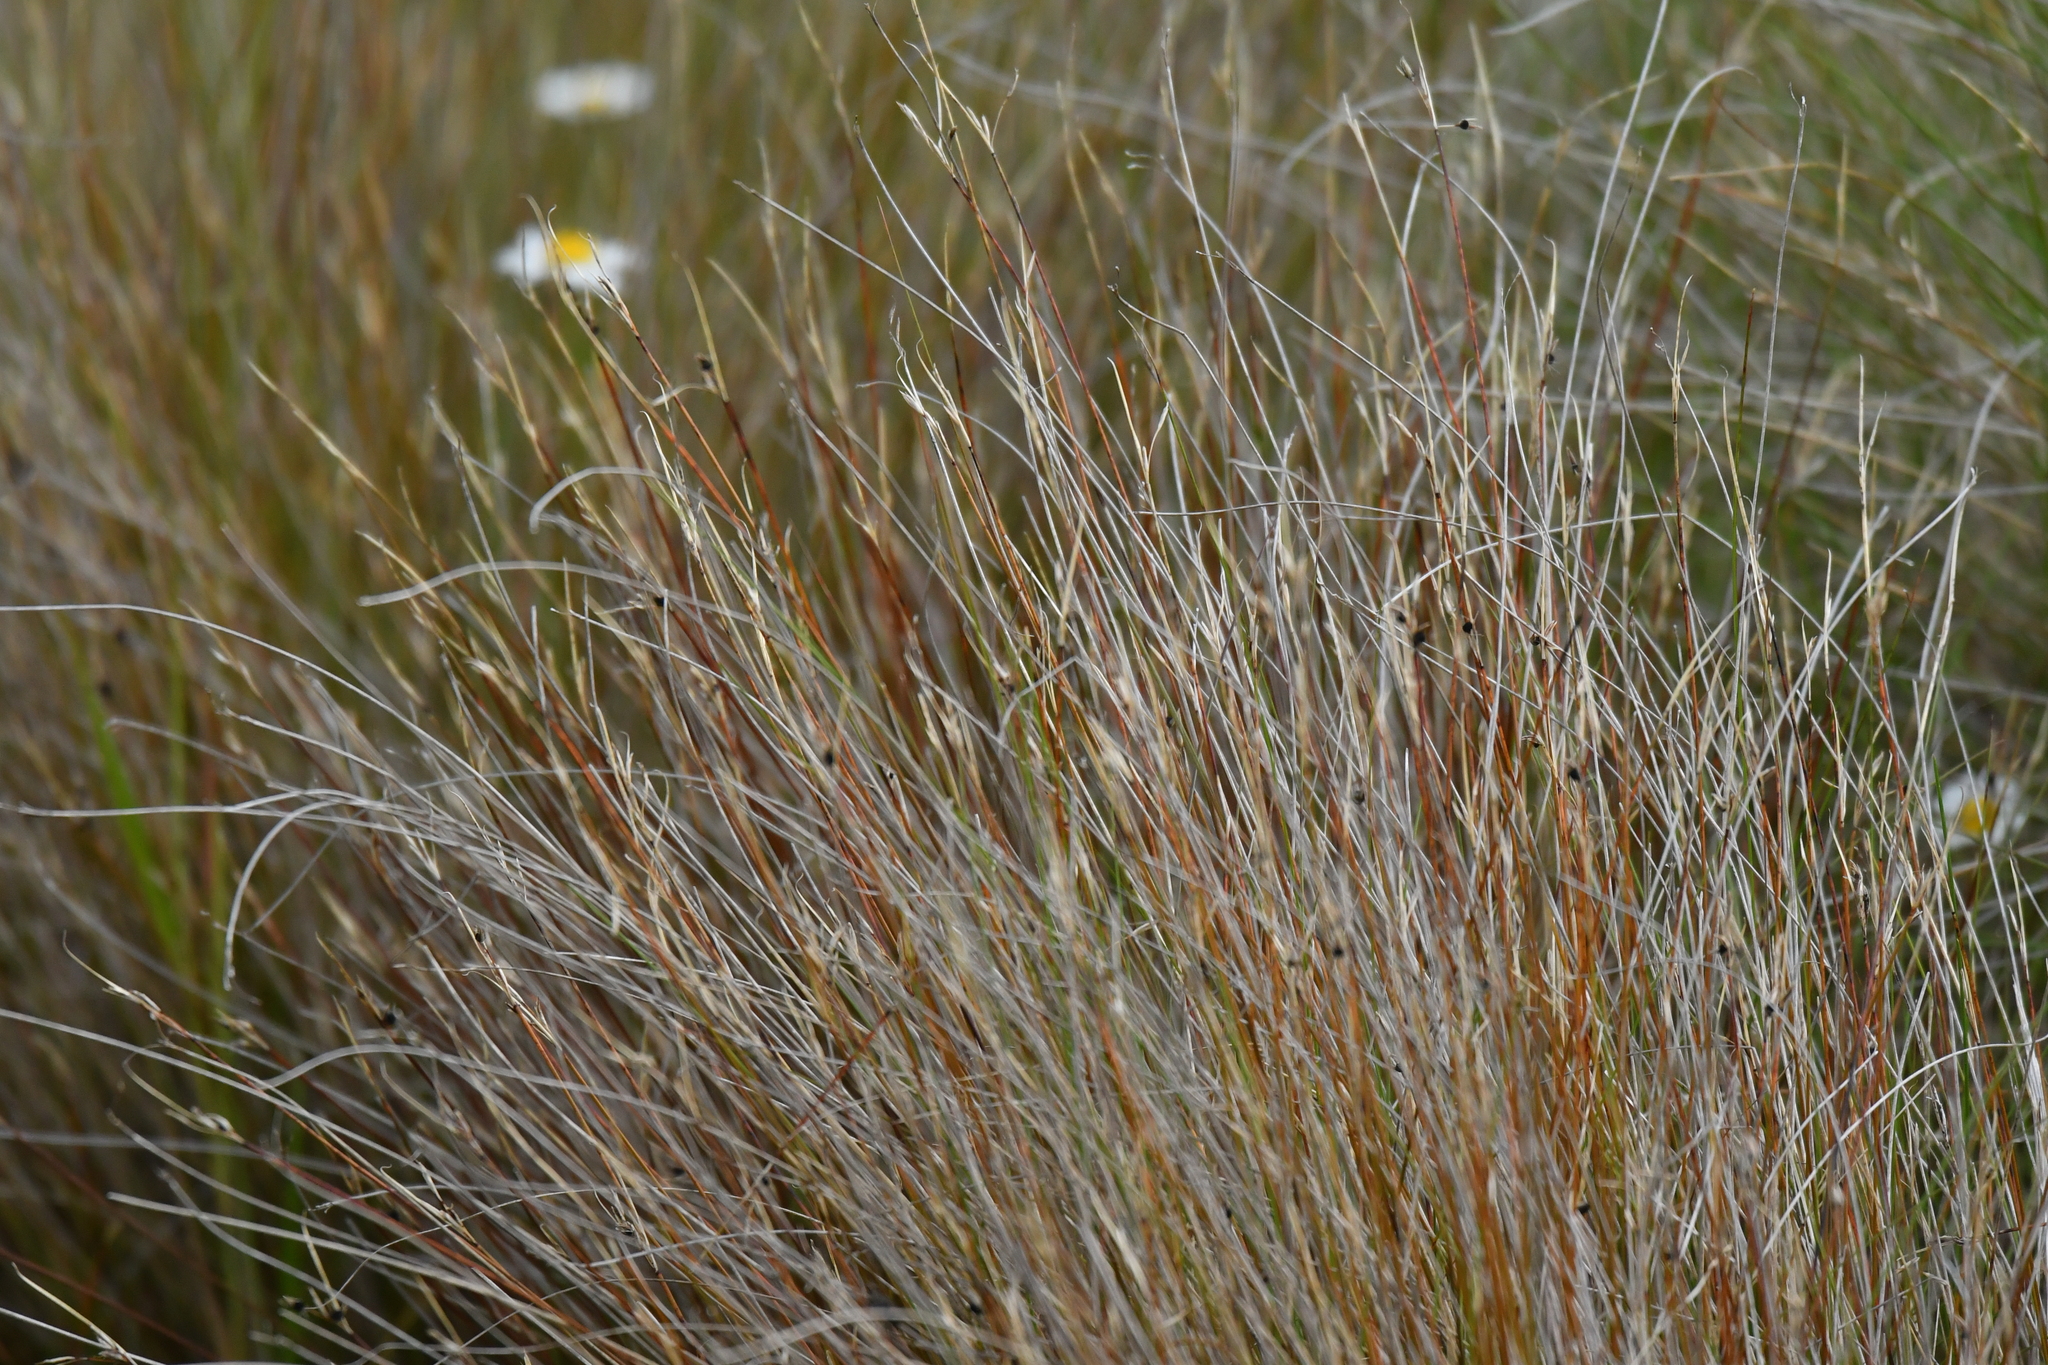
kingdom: Plantae
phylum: Tracheophyta
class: Liliopsida
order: Poales
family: Cyperaceae
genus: Schoenus
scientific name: Schoenus pauciflorus
